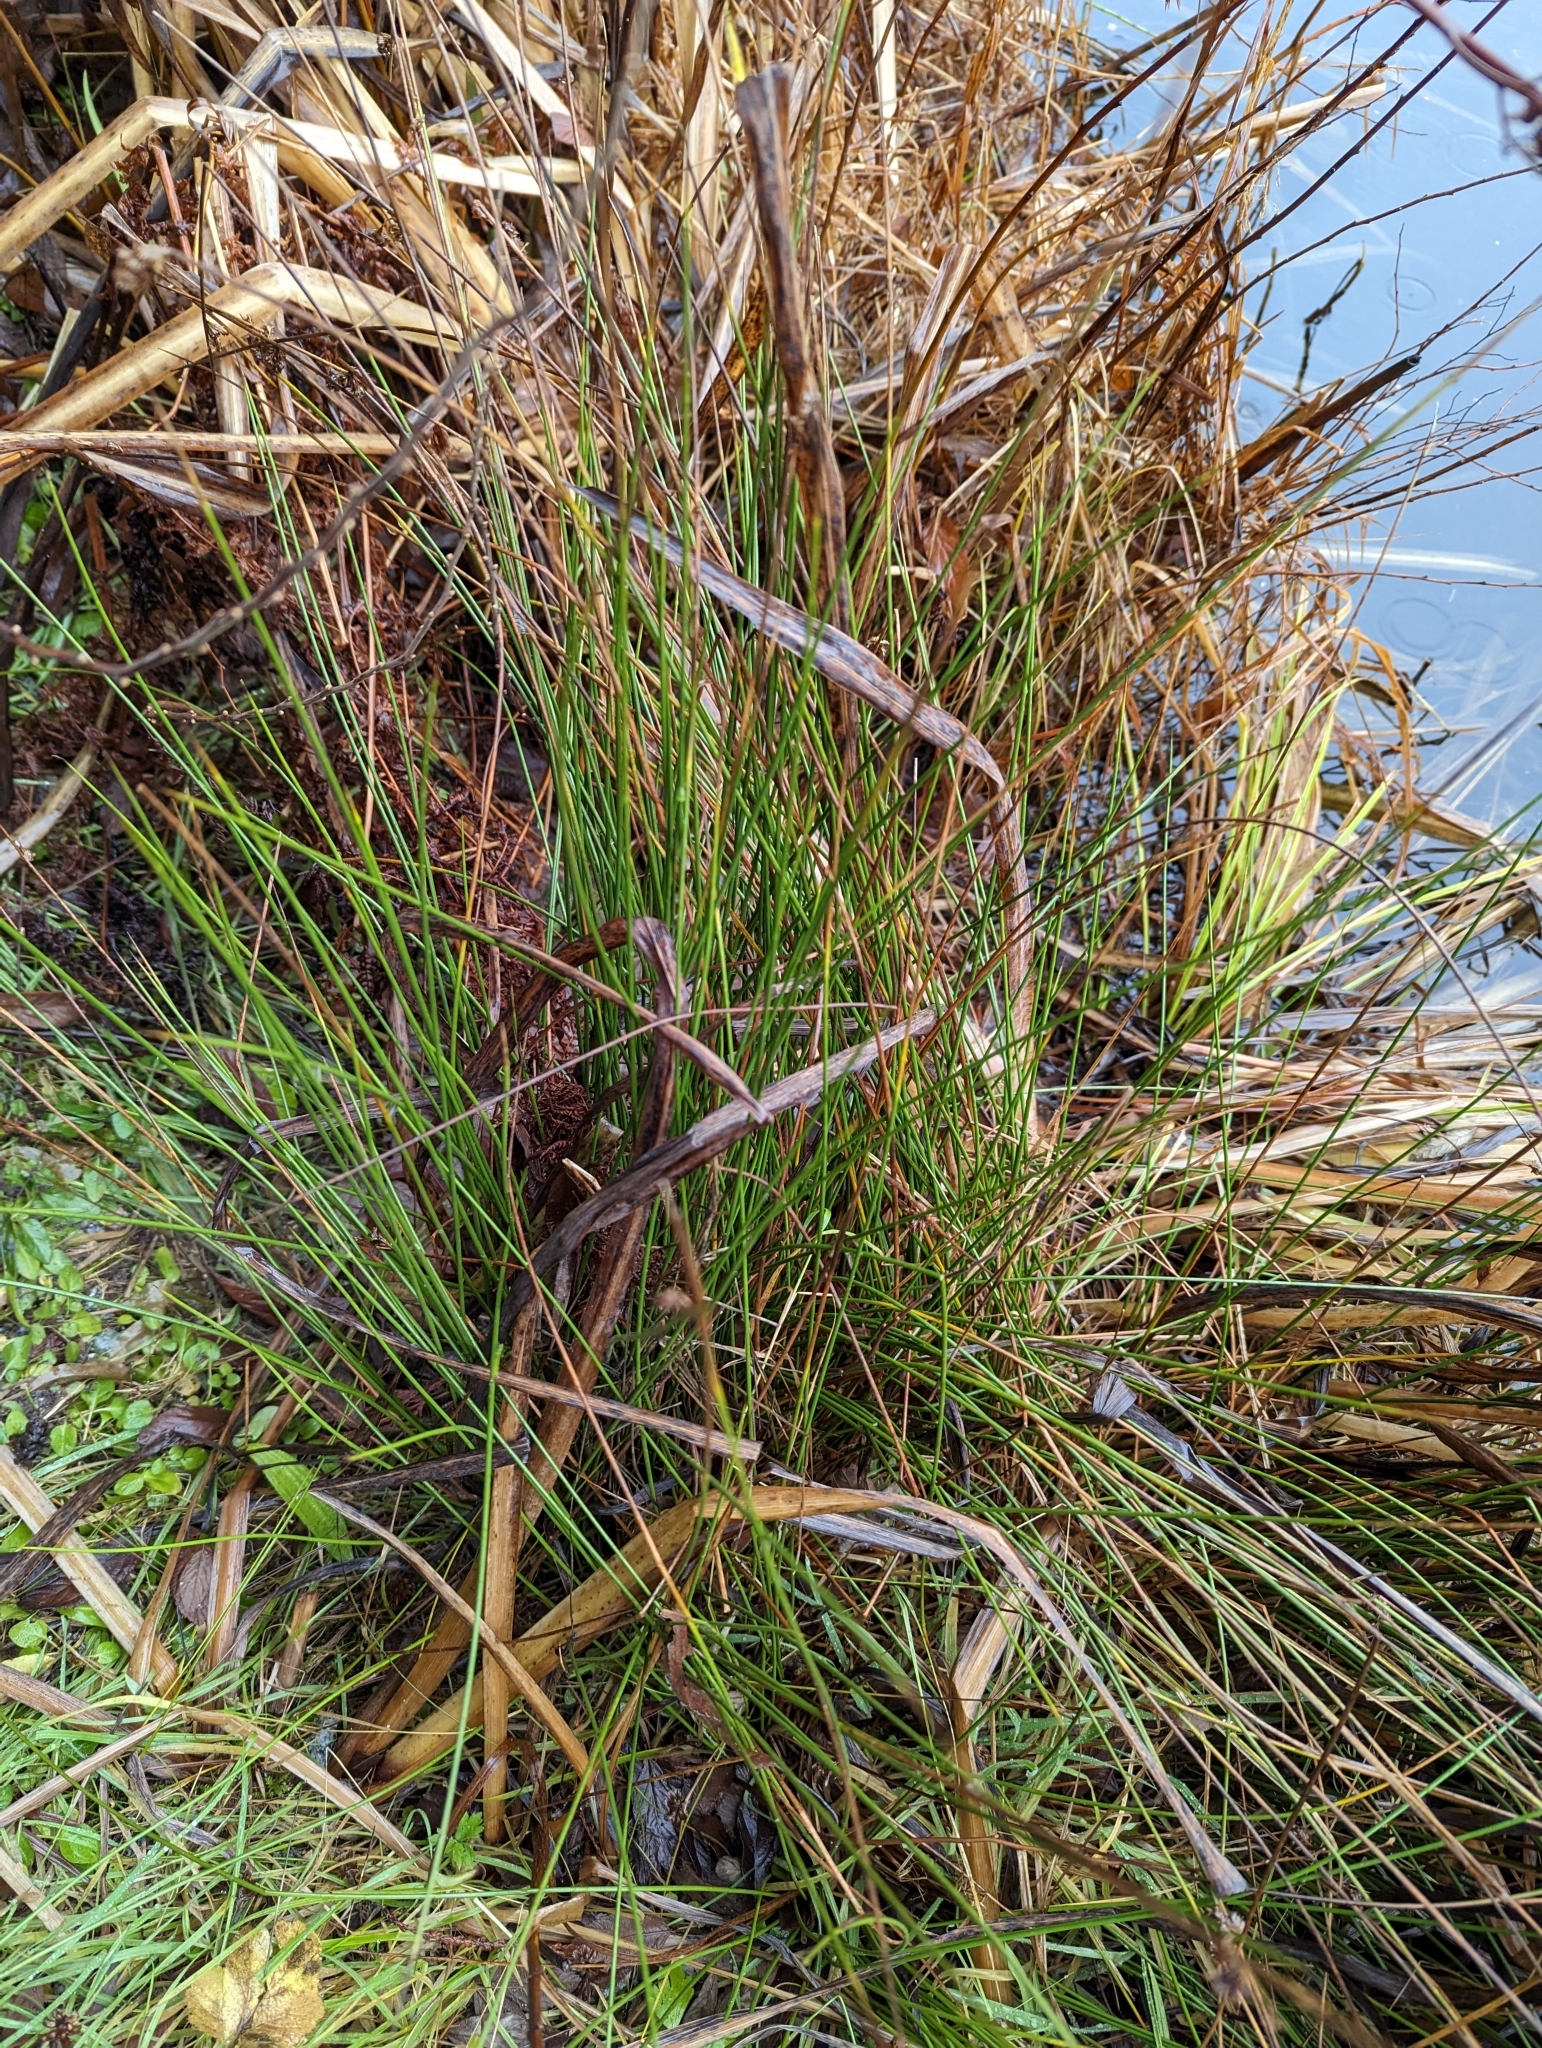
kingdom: Plantae
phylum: Tracheophyta
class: Liliopsida
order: Poales
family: Juncaceae
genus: Juncus
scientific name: Juncus effusus
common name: Soft rush
